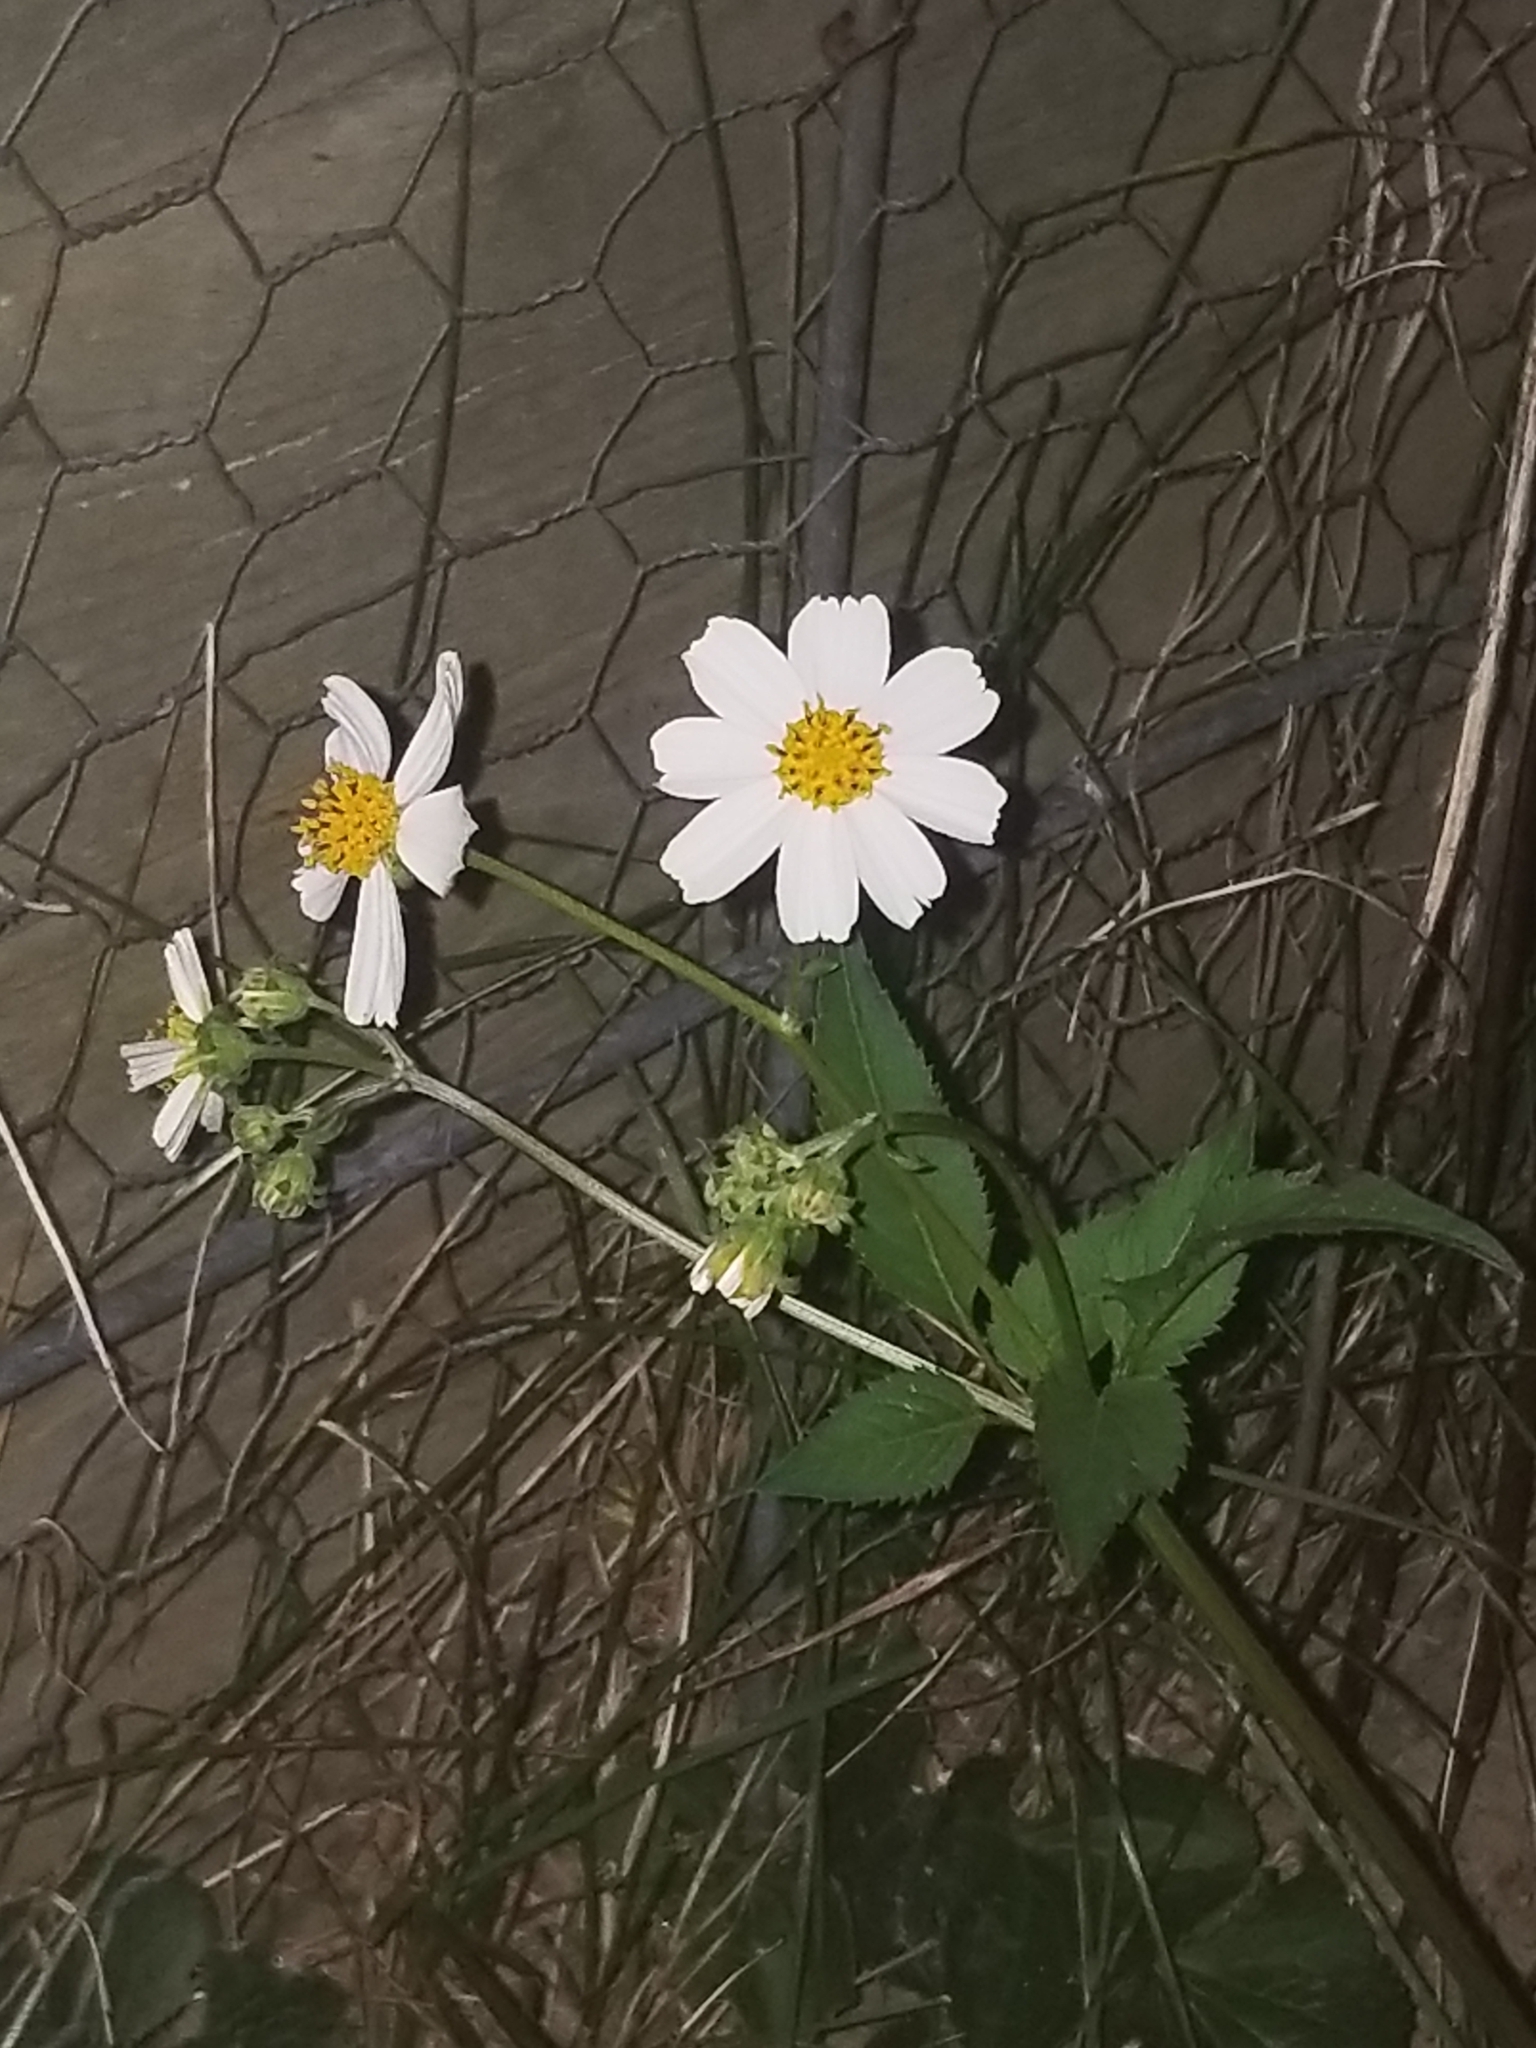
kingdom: Plantae
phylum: Tracheophyta
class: Magnoliopsida
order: Asterales
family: Asteraceae
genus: Bidens
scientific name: Bidens alba
